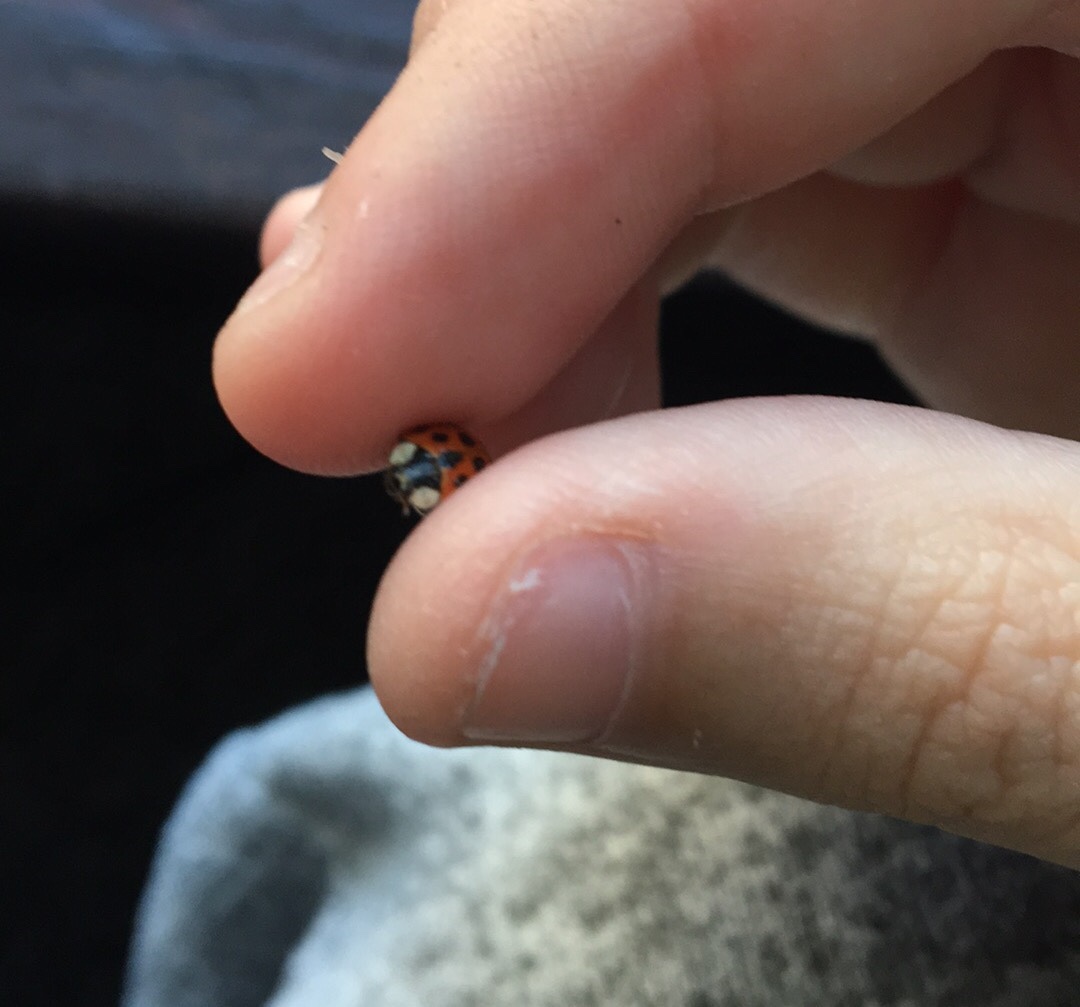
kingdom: Animalia
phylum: Arthropoda
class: Insecta
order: Coleoptera
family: Coccinellidae
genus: Harmonia
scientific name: Harmonia axyridis
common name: Harlequin ladybird
